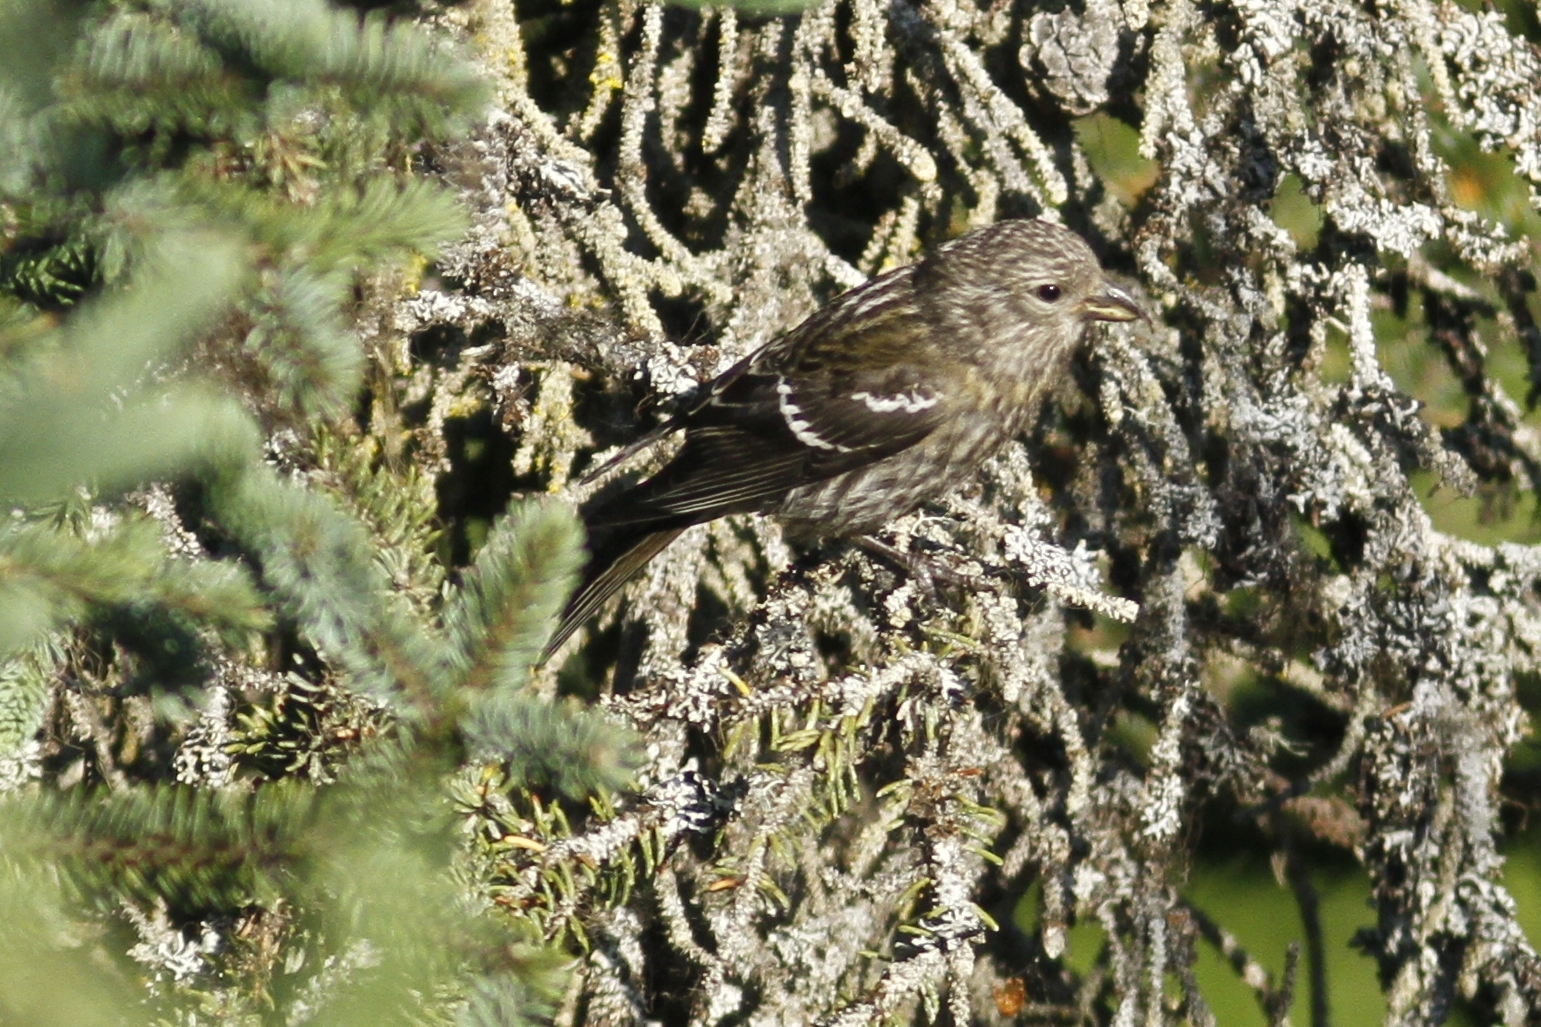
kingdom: Animalia
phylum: Chordata
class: Aves
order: Passeriformes
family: Fringillidae
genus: Loxia
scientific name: Loxia leucoptera
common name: Two-barred crossbill
